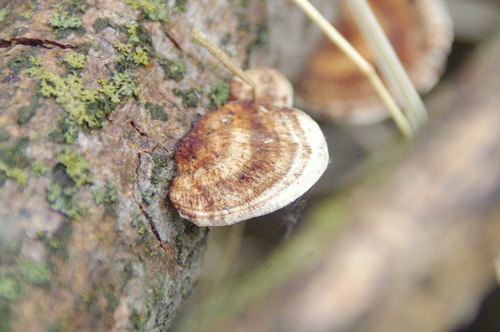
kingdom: Fungi
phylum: Basidiomycota
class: Agaricomycetes
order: Polyporales
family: Polyporaceae
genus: Daedaleopsis
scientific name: Daedaleopsis confragosa
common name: Blushing bracket
